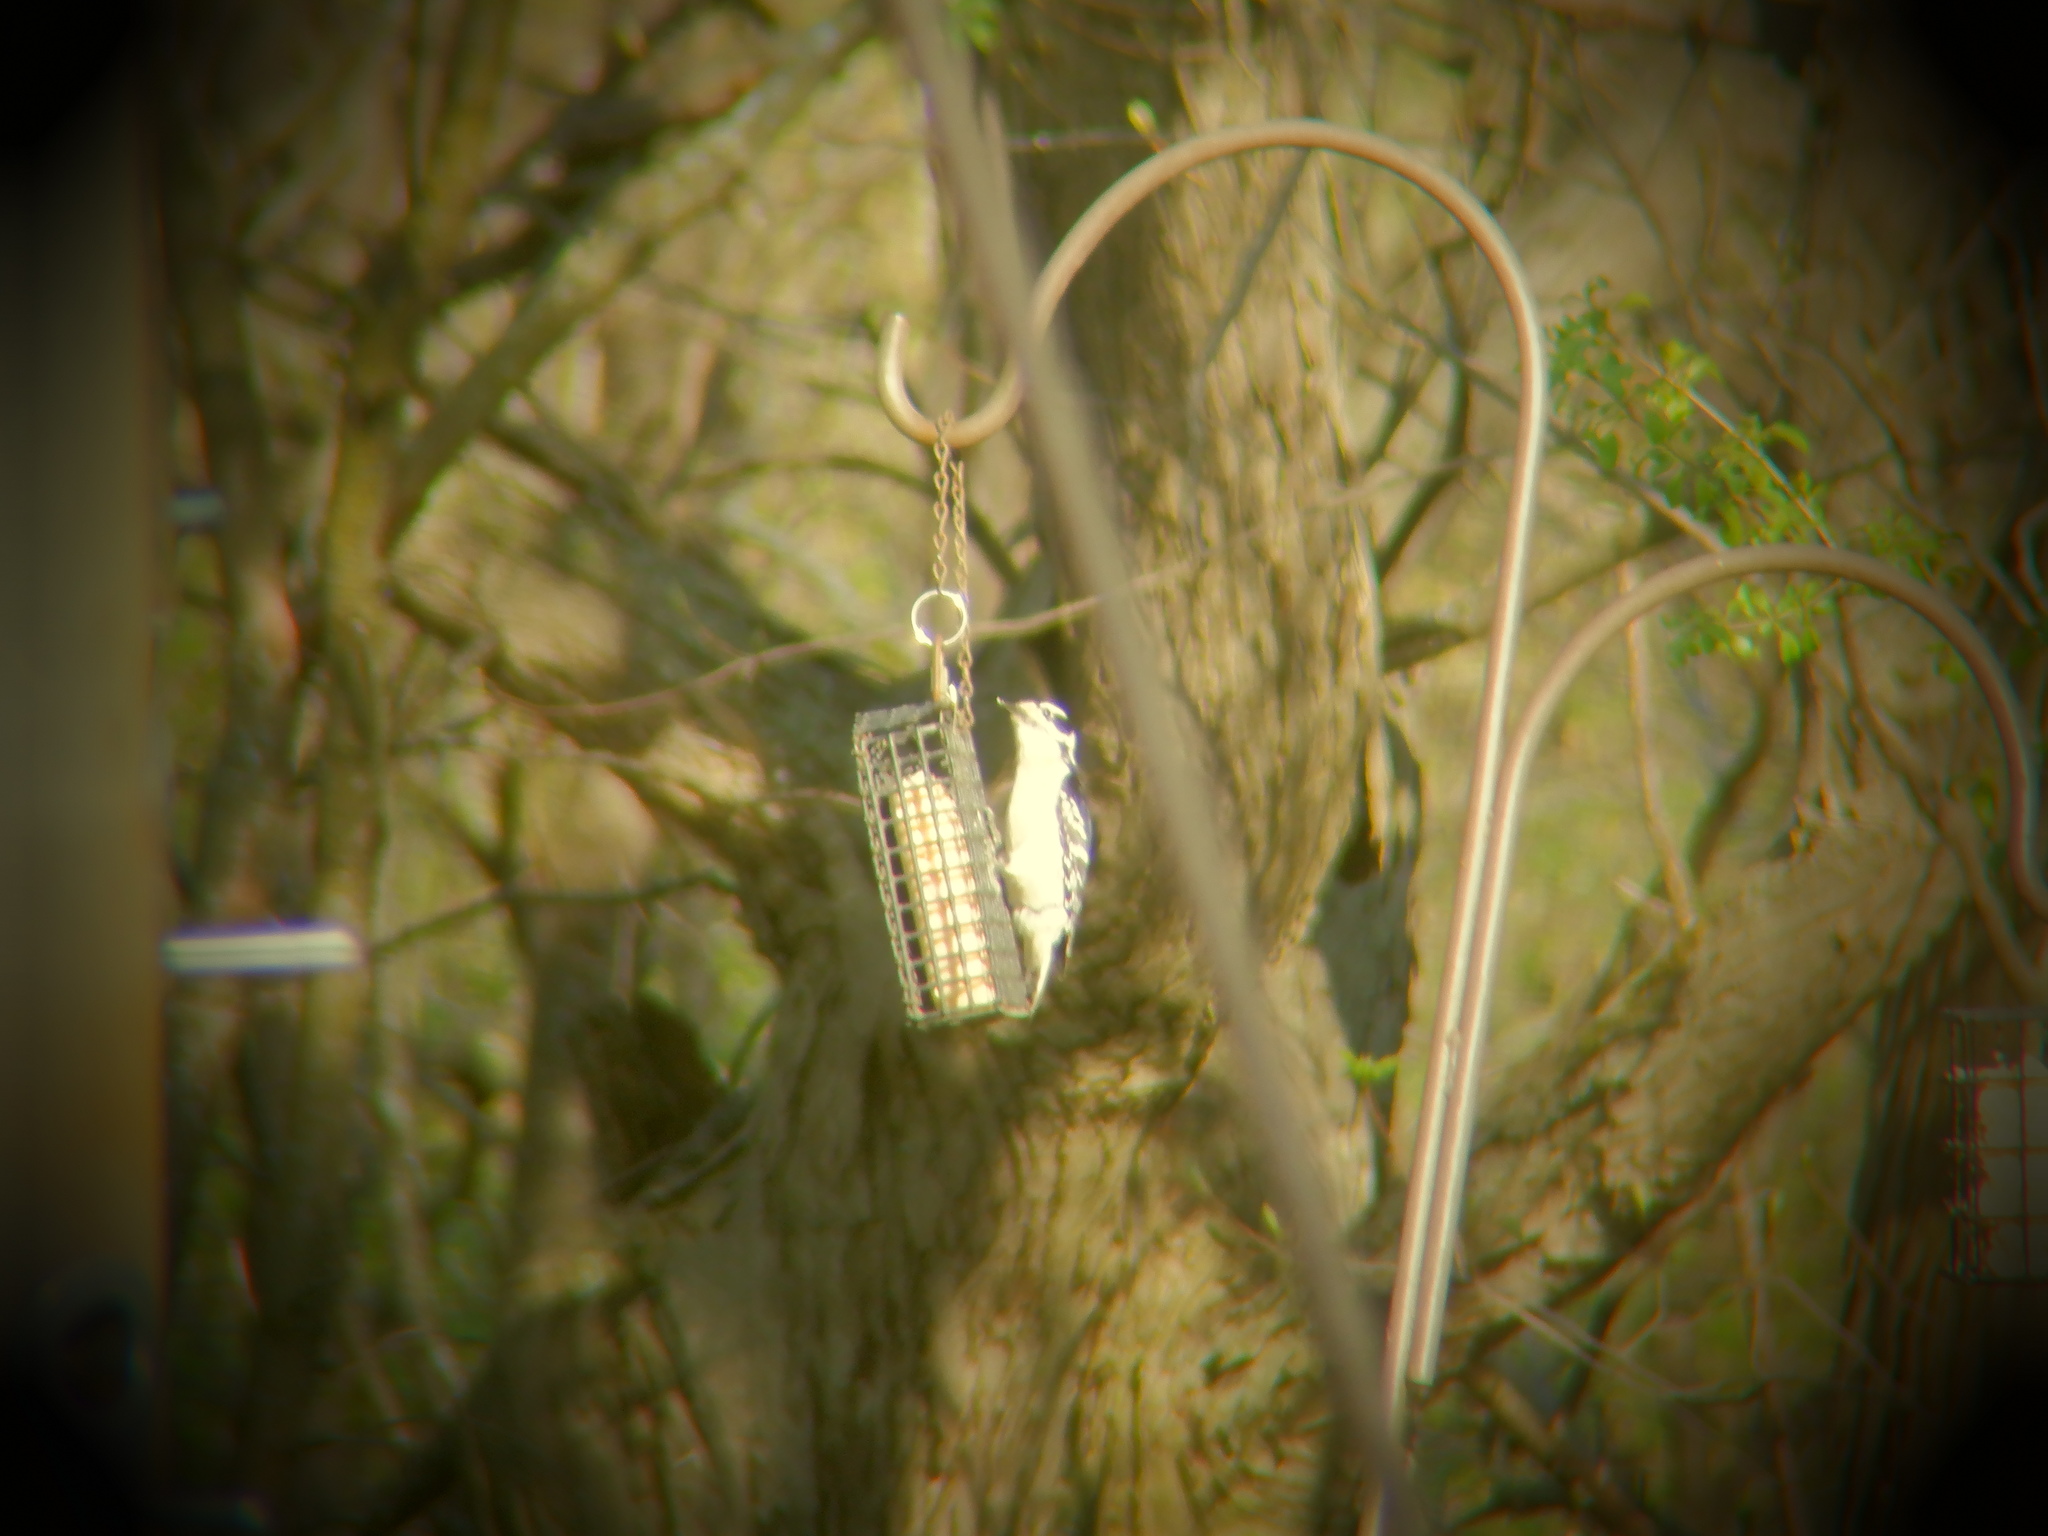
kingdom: Animalia
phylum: Chordata
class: Aves
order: Piciformes
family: Picidae
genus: Leuconotopicus
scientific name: Leuconotopicus villosus
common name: Hairy woodpecker
